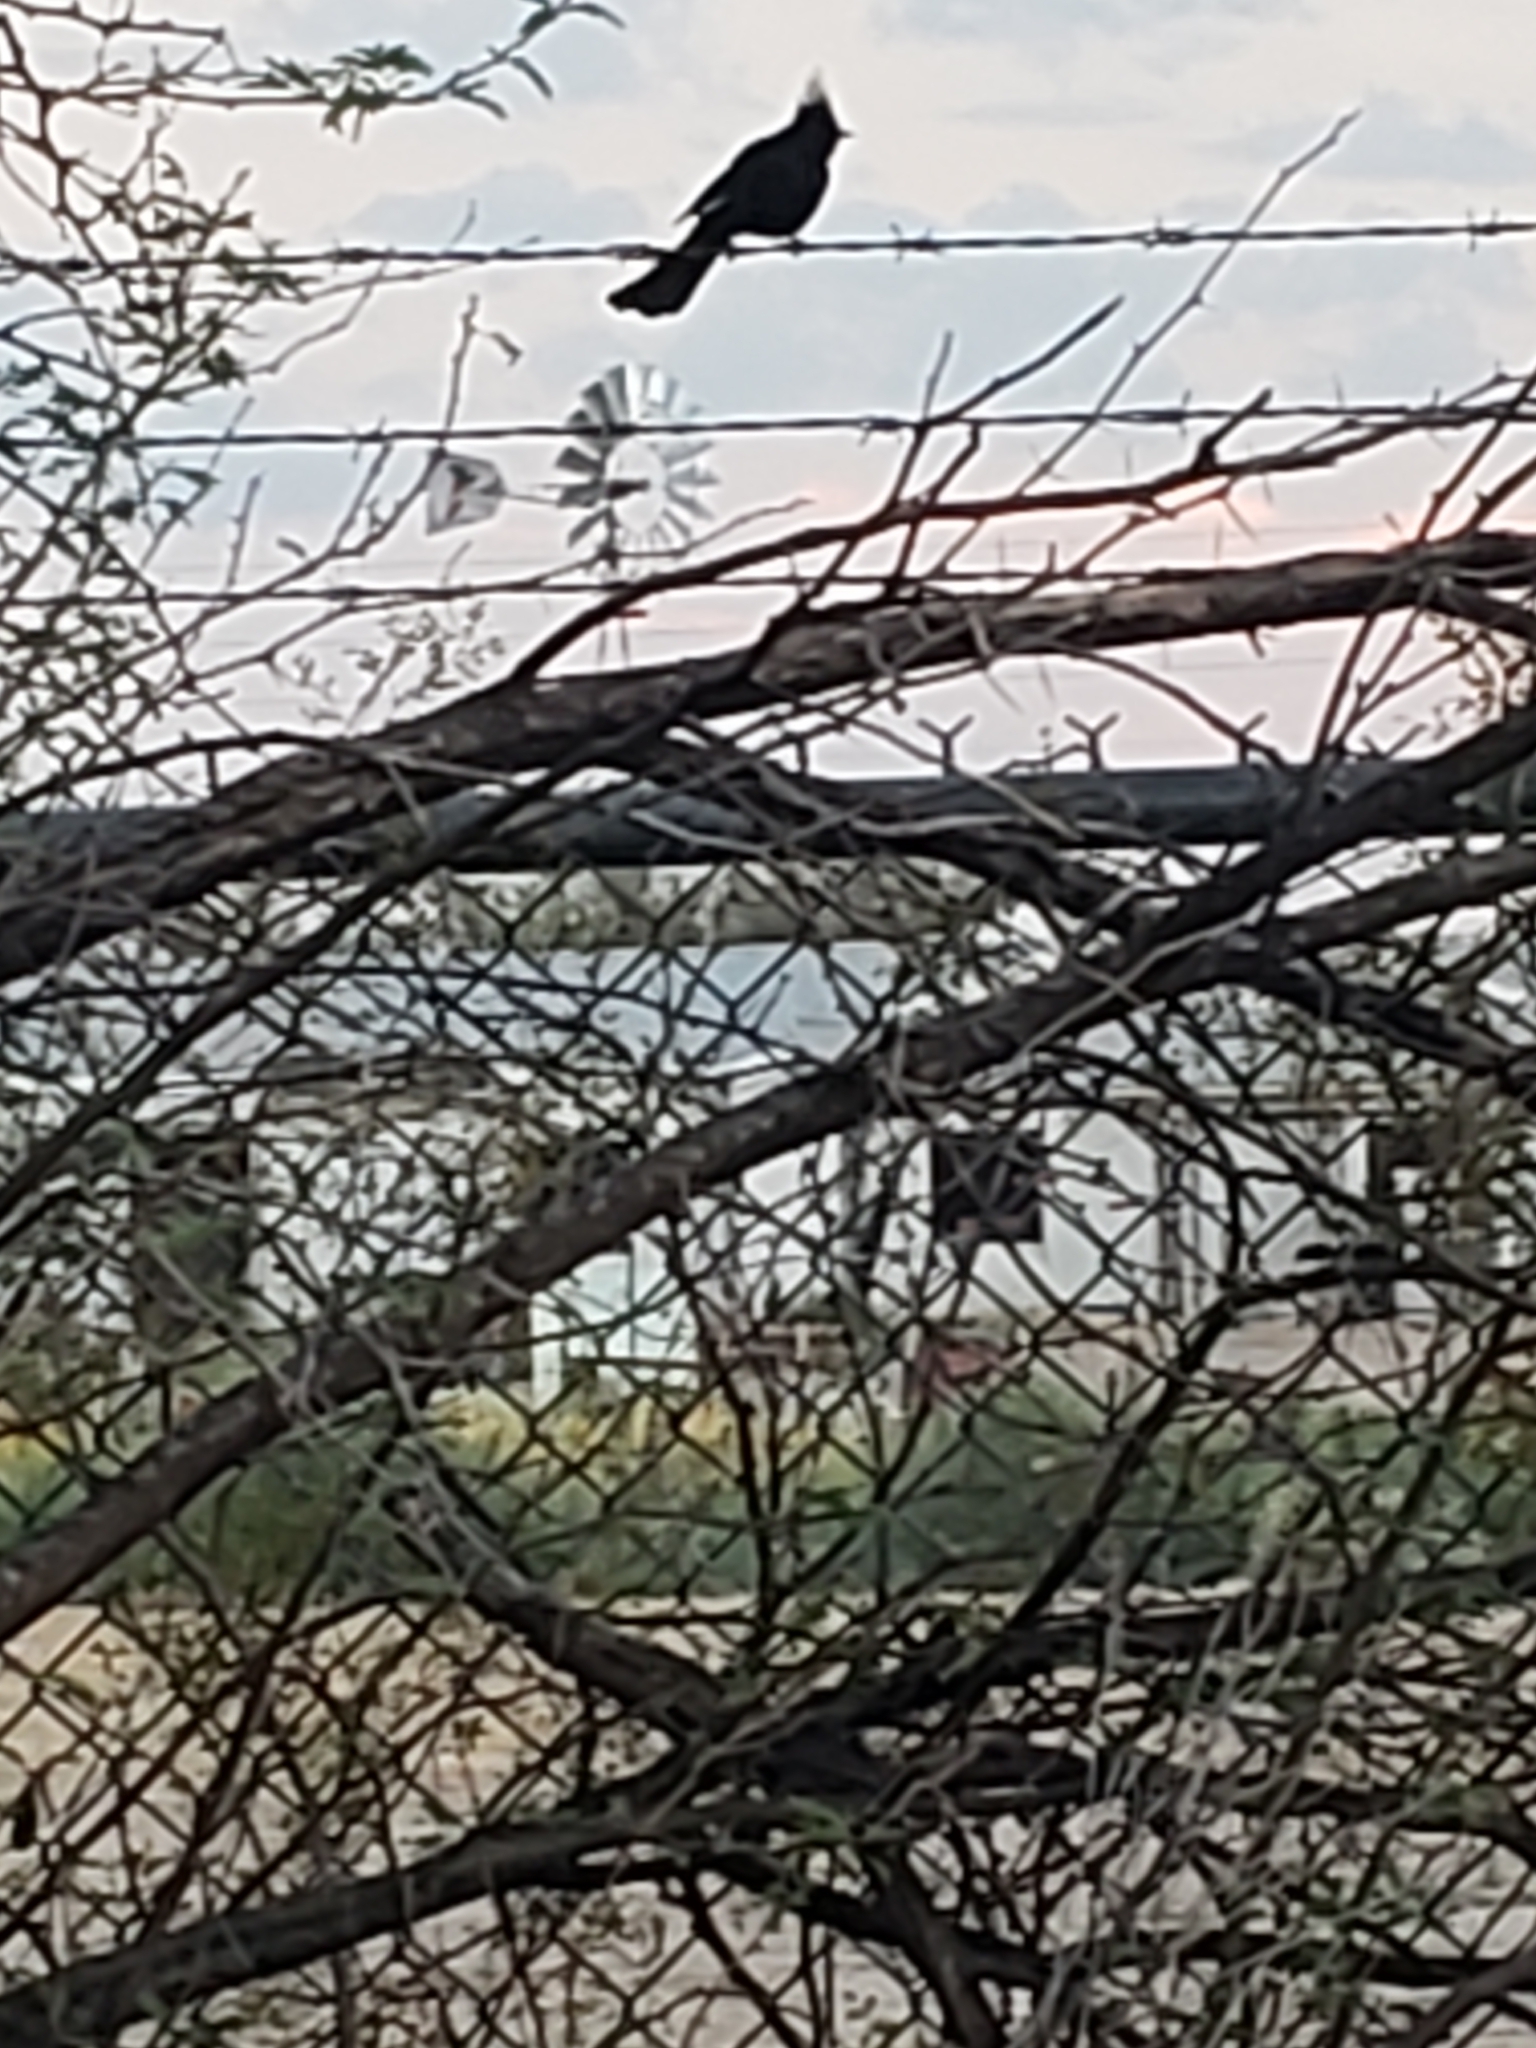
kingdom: Animalia
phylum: Chordata
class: Aves
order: Passeriformes
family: Ptilogonatidae
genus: Phainopepla
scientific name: Phainopepla nitens
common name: Phainopepla
